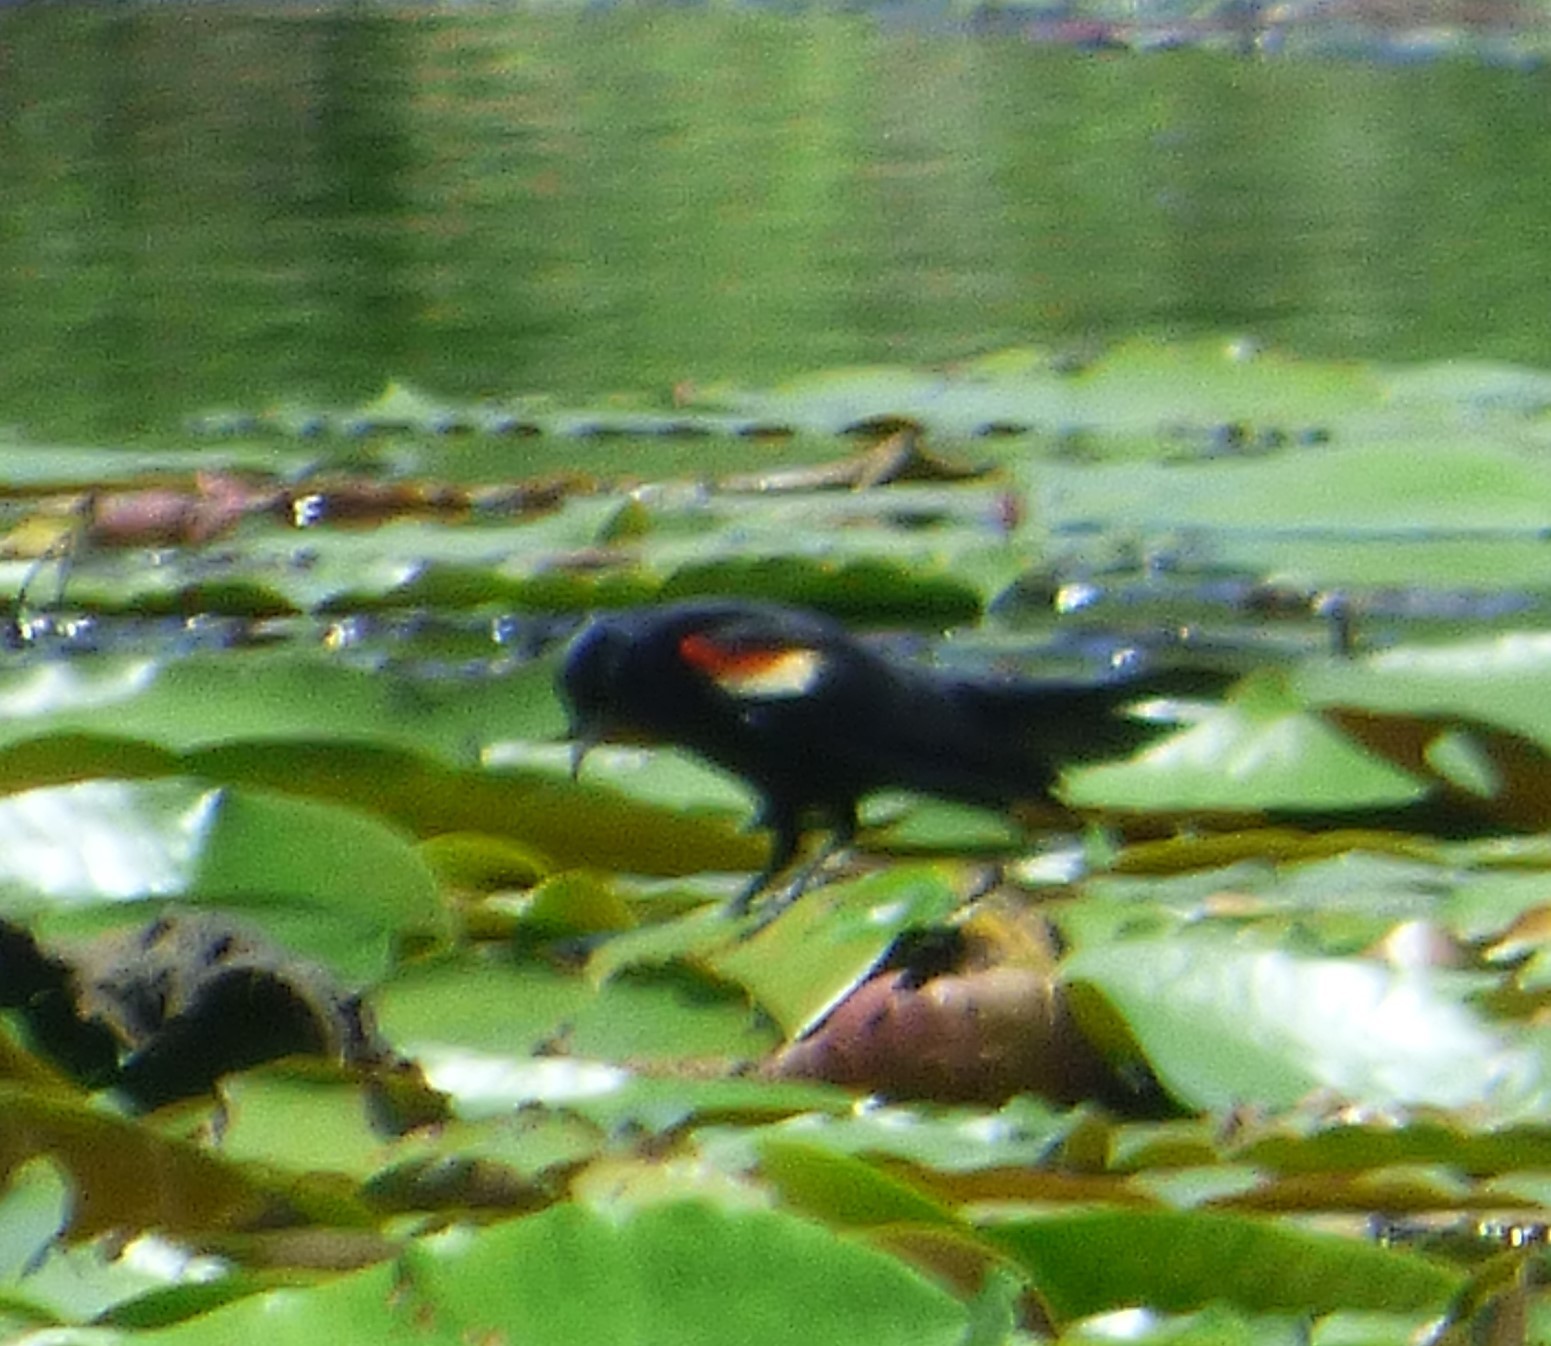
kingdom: Animalia
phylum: Chordata
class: Aves
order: Passeriformes
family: Icteridae
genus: Agelaius
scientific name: Agelaius phoeniceus
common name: Red-winged blackbird
